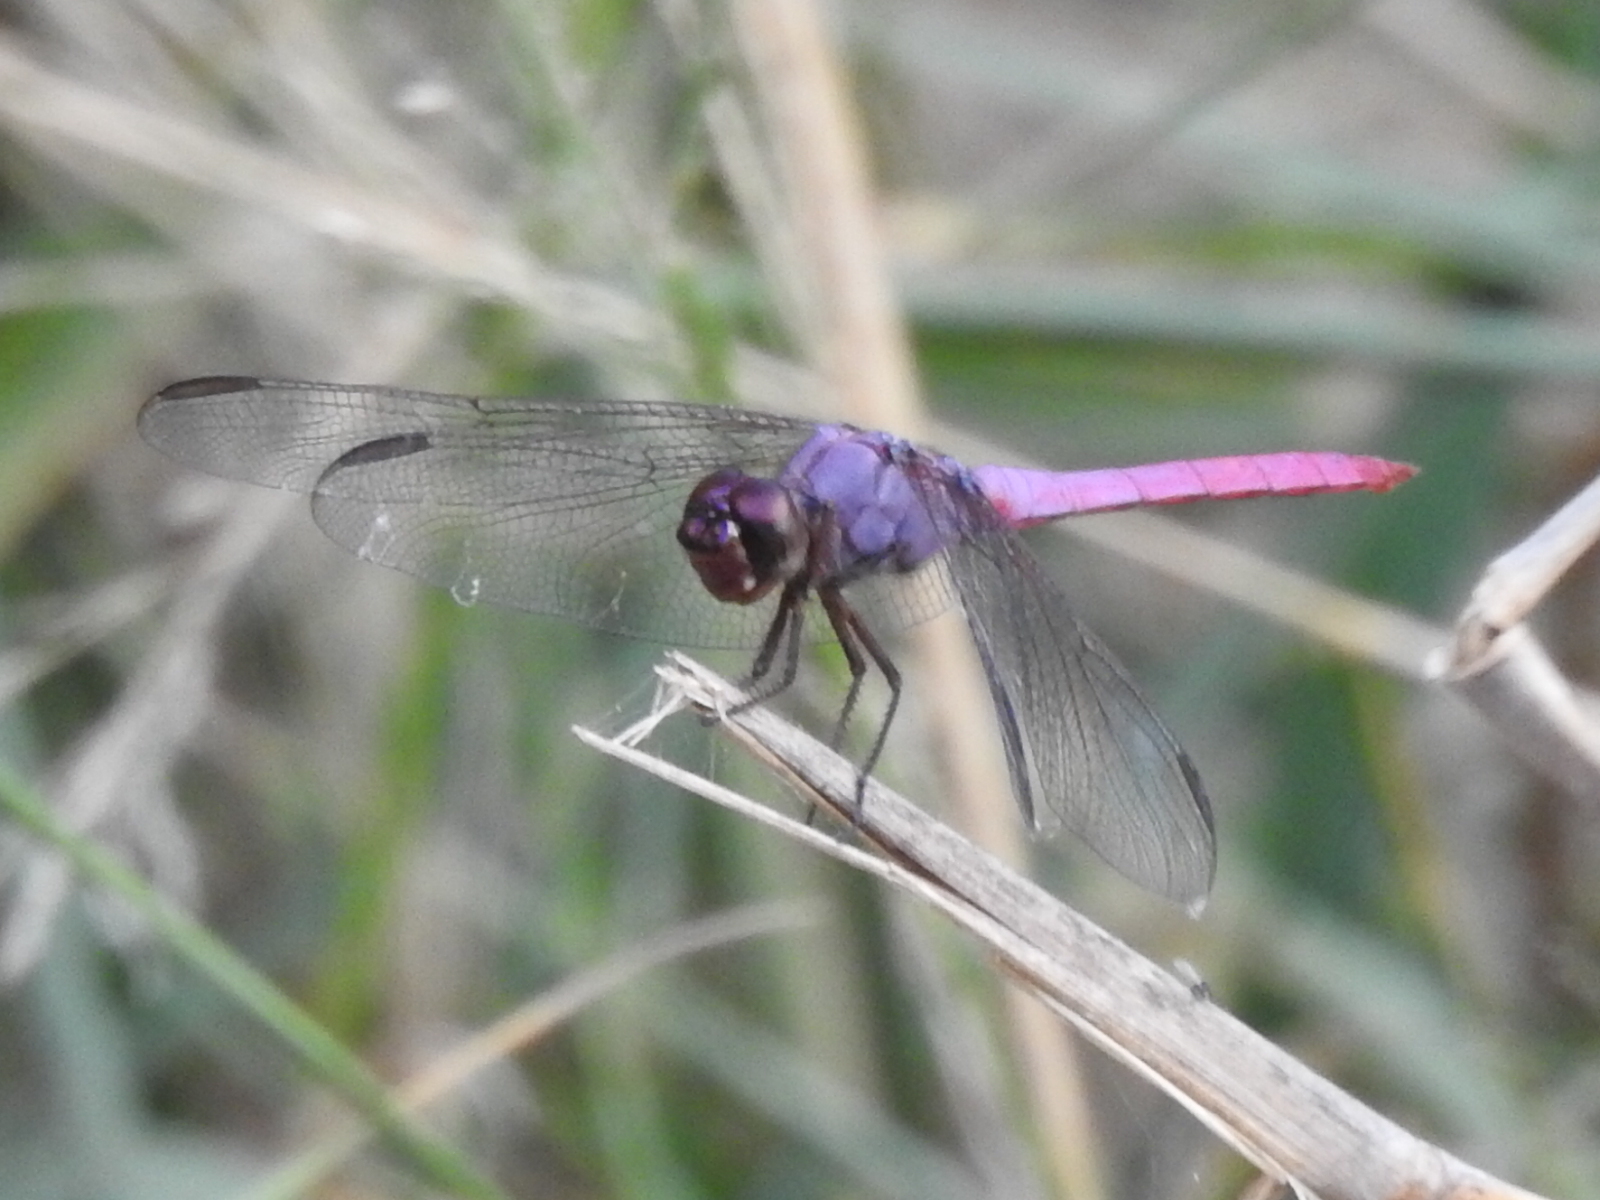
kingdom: Animalia
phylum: Arthropoda
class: Insecta
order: Odonata
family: Libellulidae
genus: Orthemis
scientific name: Orthemis ferruginea
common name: Roseate skimmer
